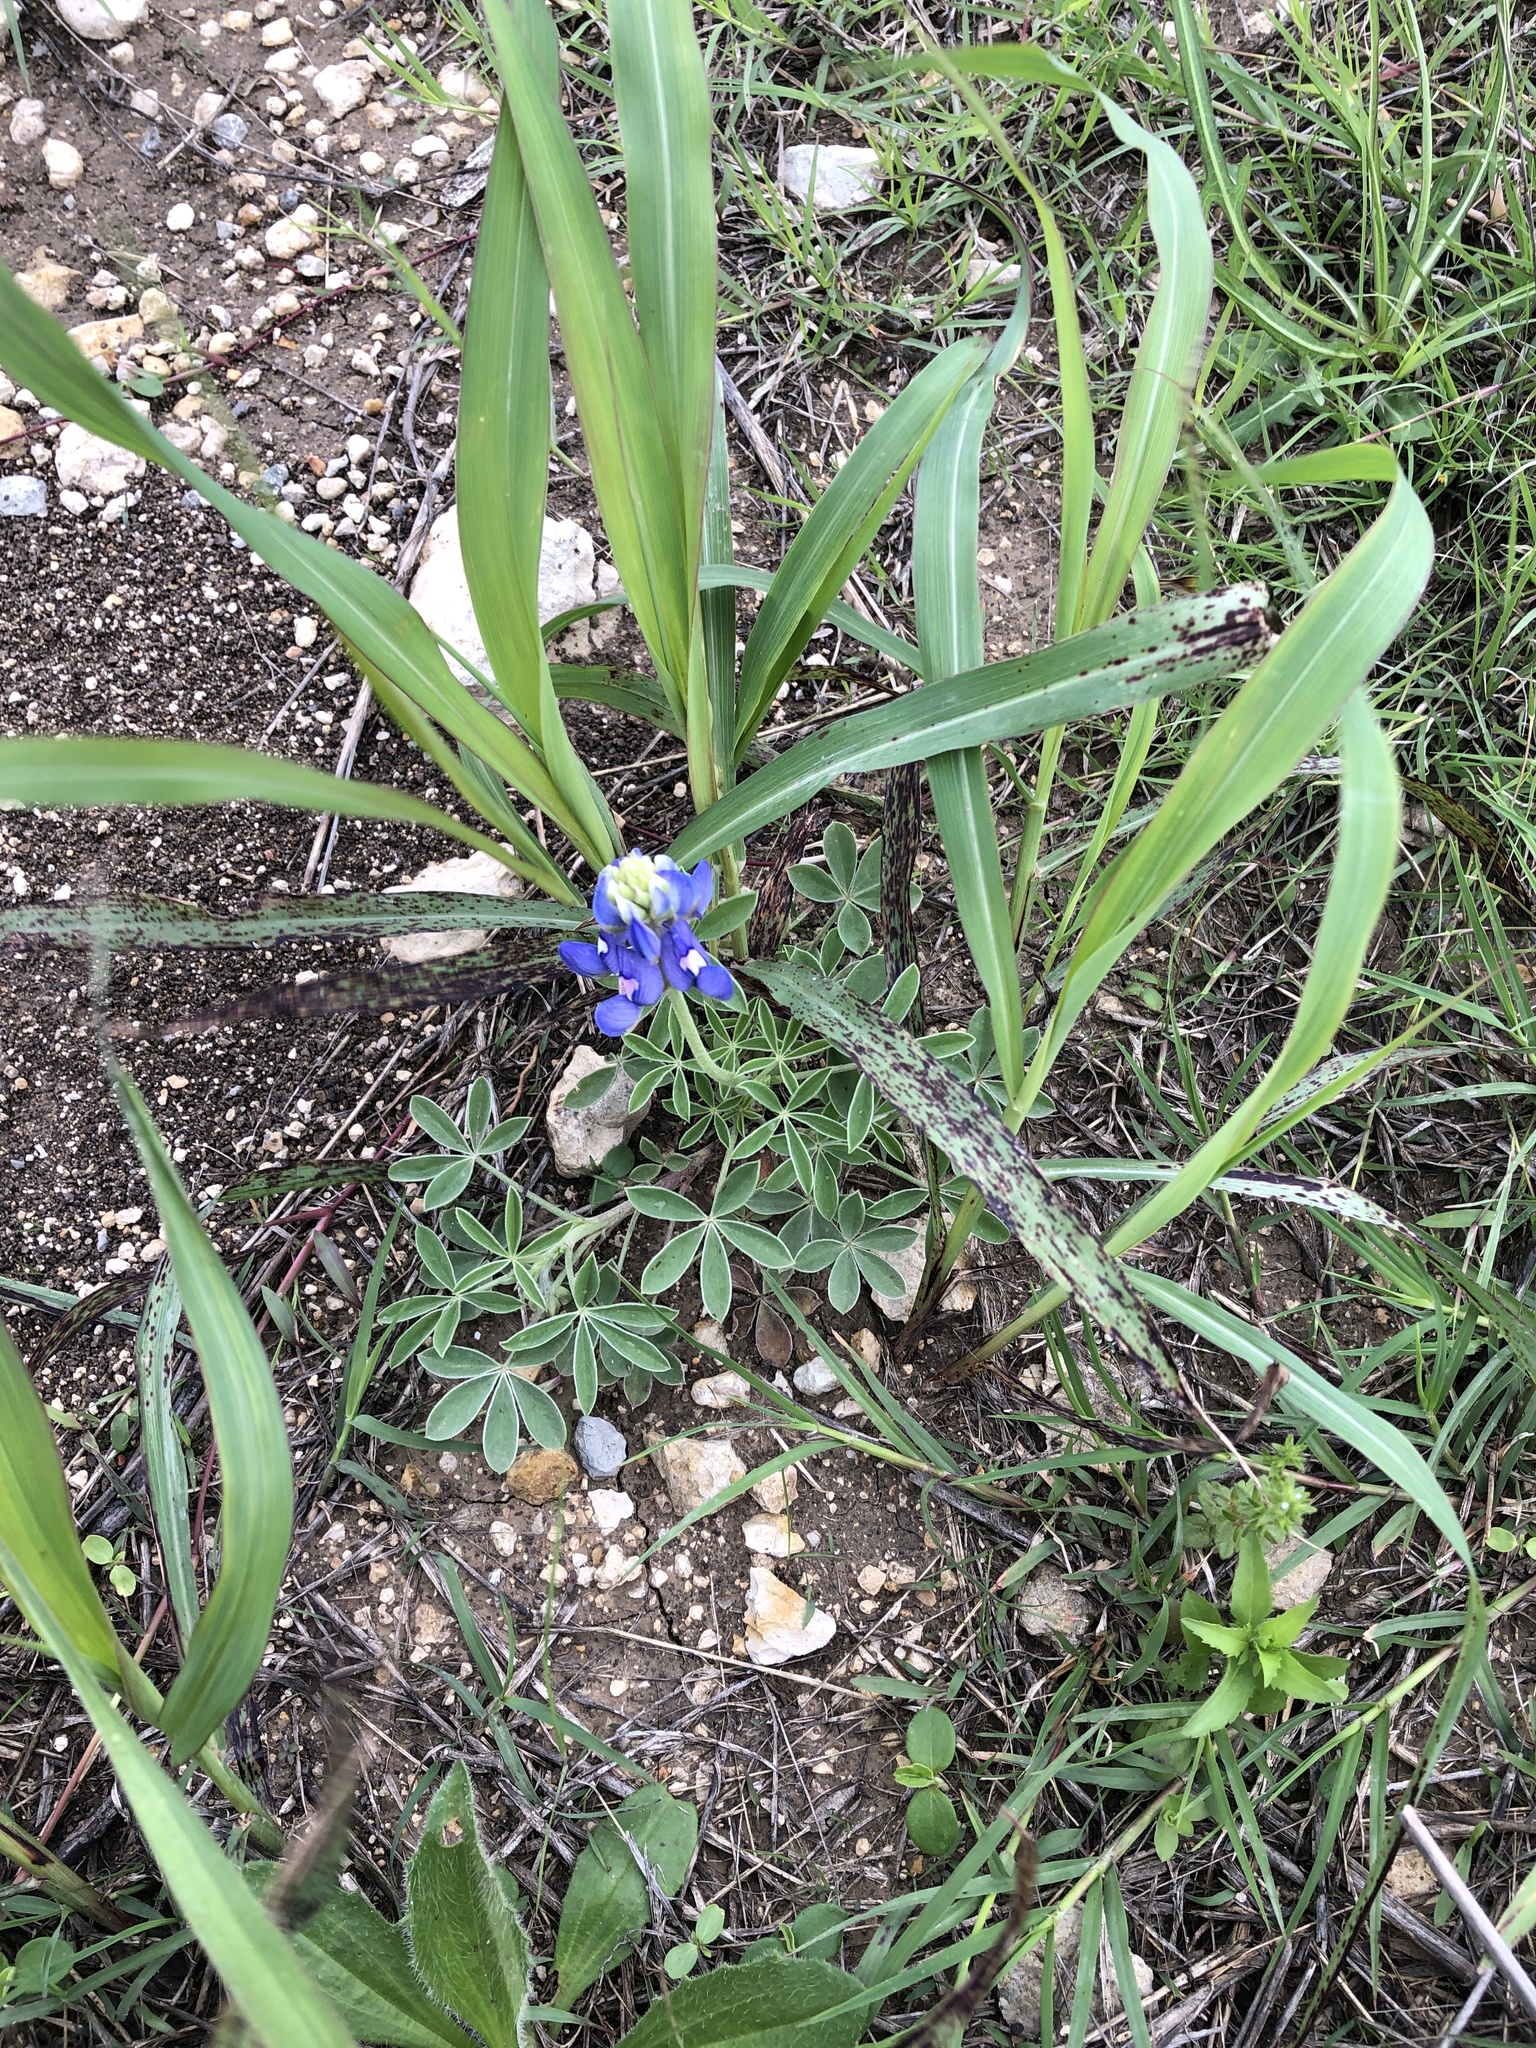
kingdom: Plantae
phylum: Tracheophyta
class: Magnoliopsida
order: Fabales
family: Fabaceae
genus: Lupinus
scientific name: Lupinus texensis
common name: Texas bluebonnet
